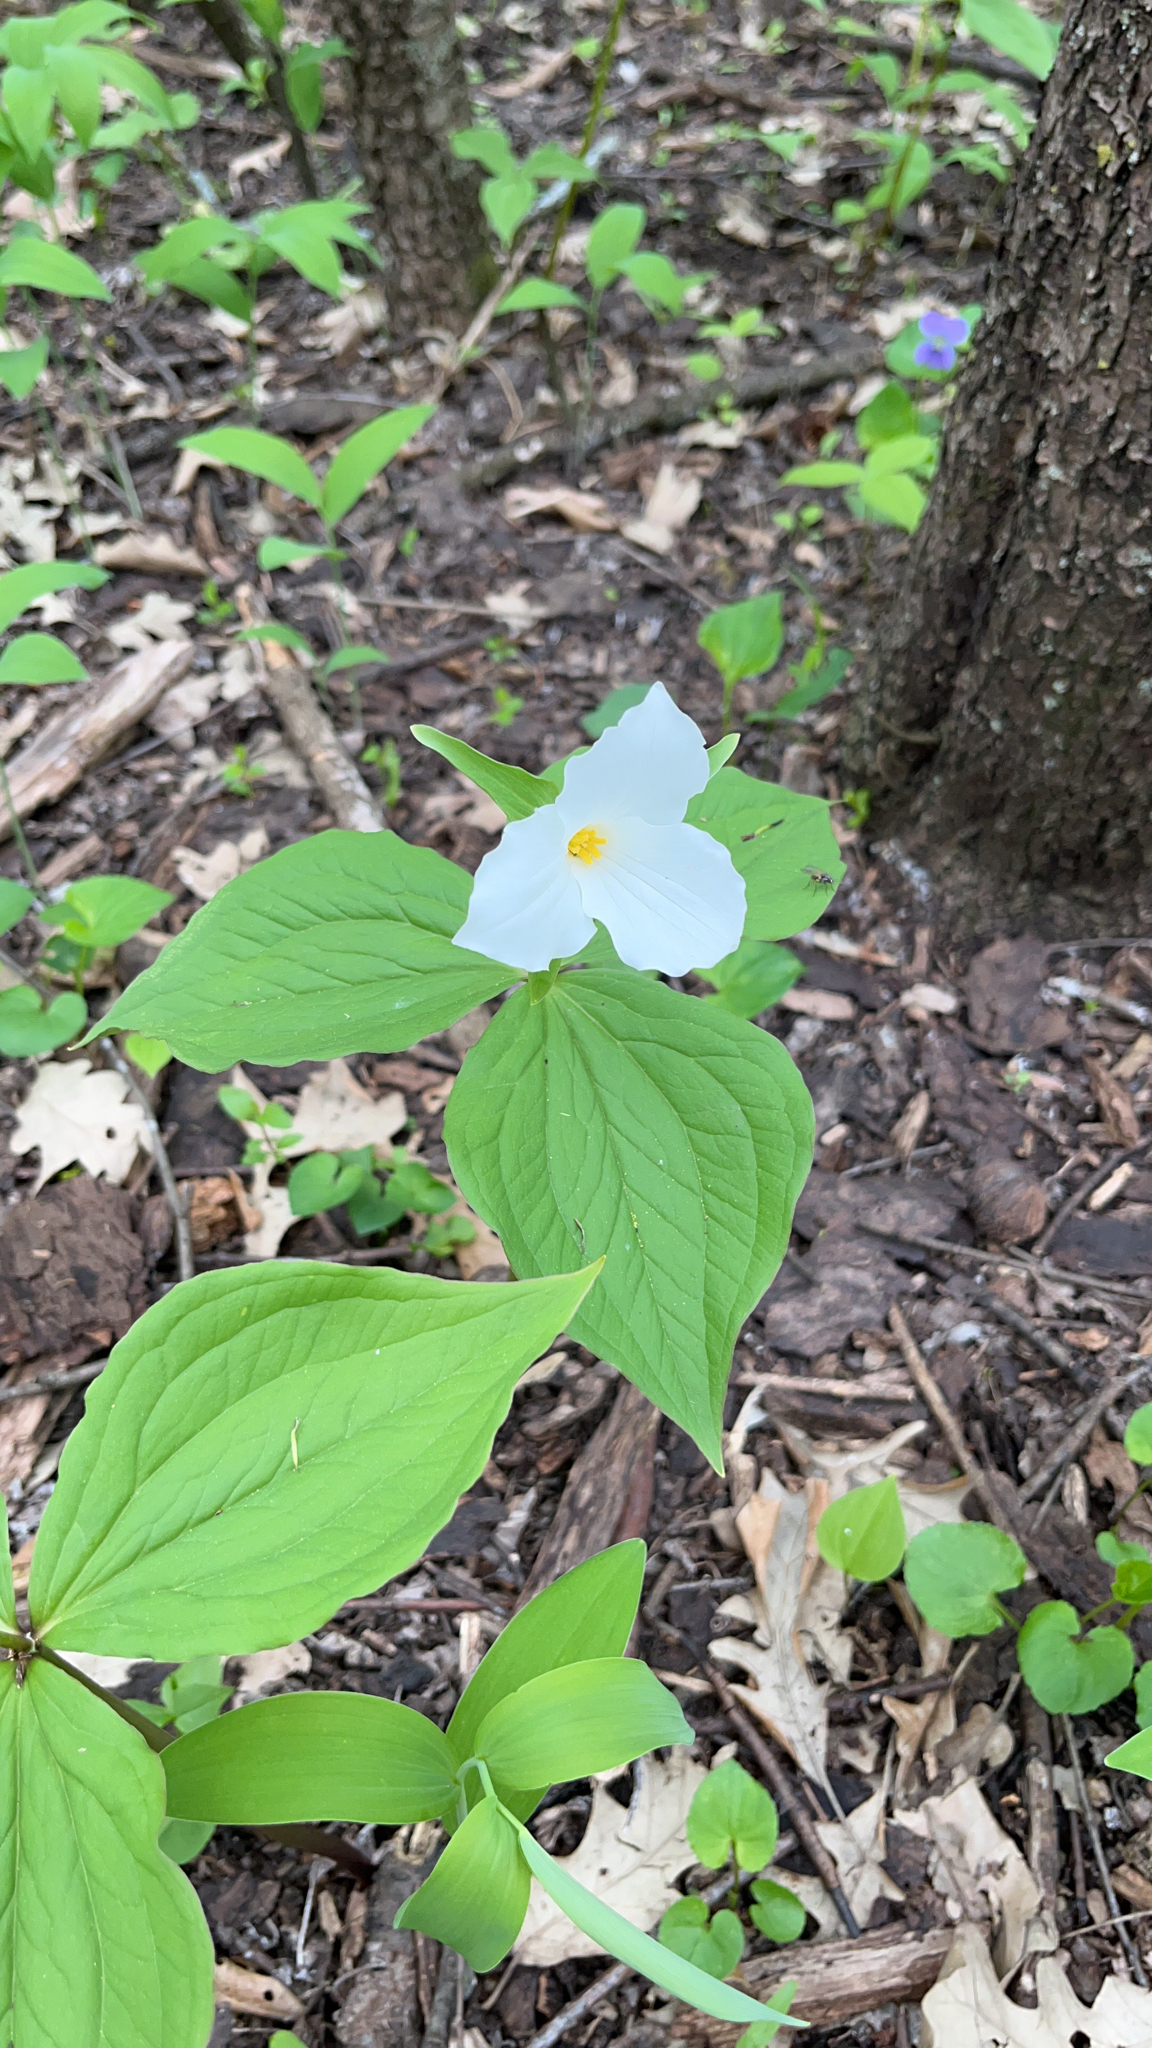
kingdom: Plantae
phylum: Tracheophyta
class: Liliopsida
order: Liliales
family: Melanthiaceae
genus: Trillium
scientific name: Trillium grandiflorum
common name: Great white trillium
